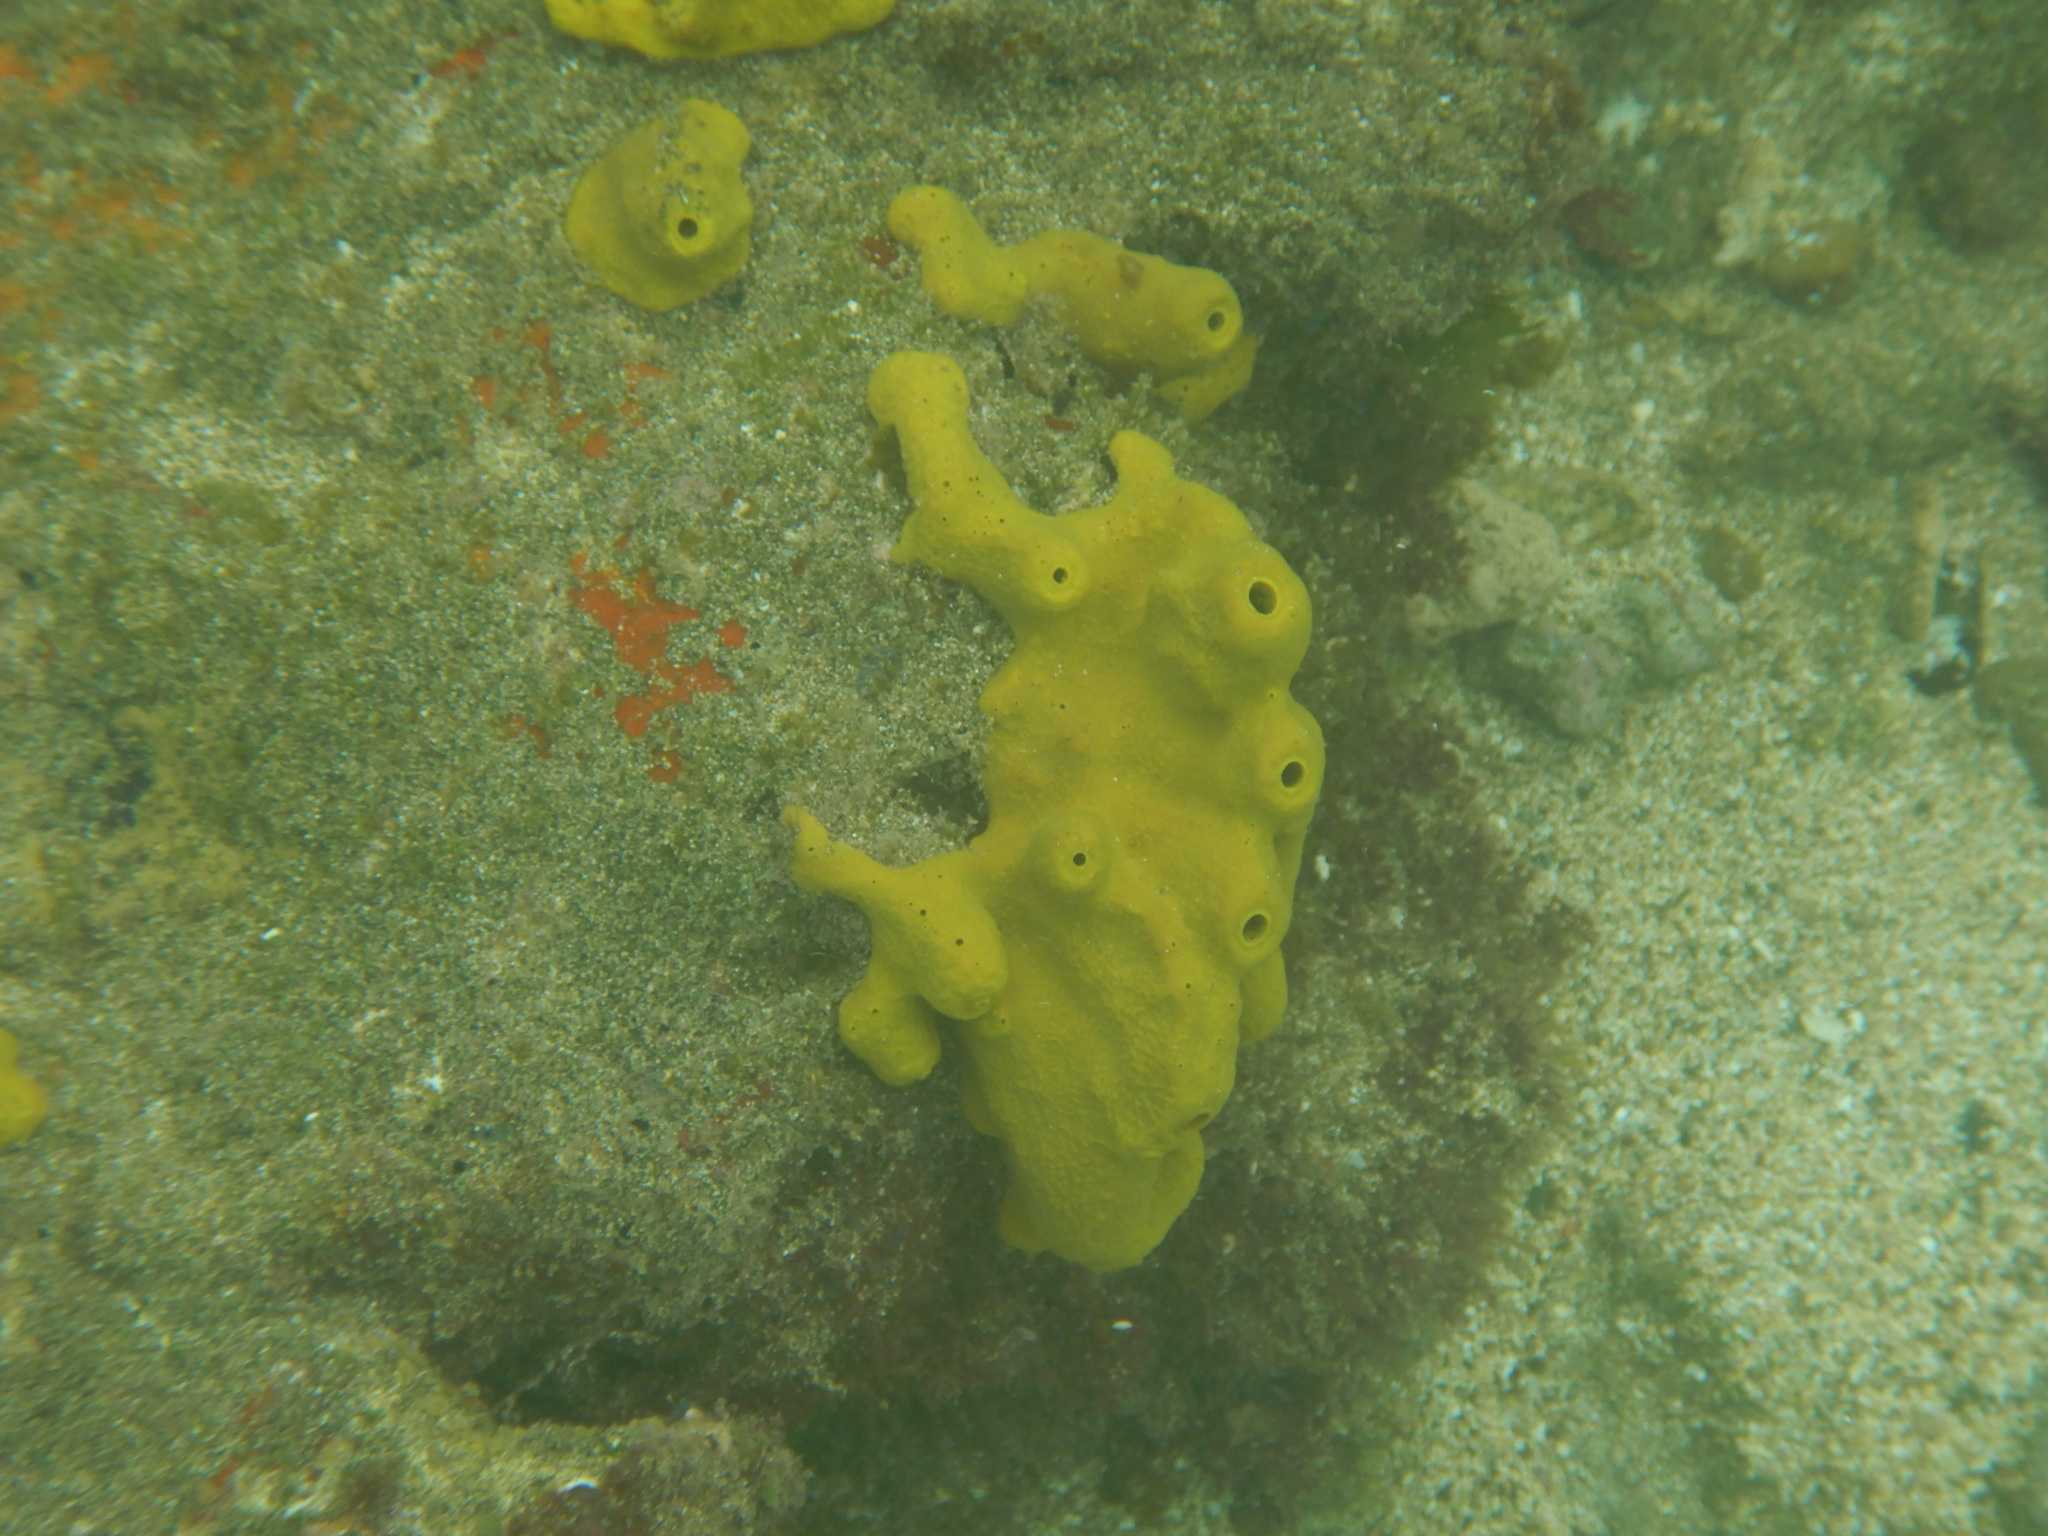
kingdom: Animalia
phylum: Porifera
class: Demospongiae
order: Verongiida
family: Aplysinidae
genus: Aplysina
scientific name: Aplysina aerophoba
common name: Aureate sponge
